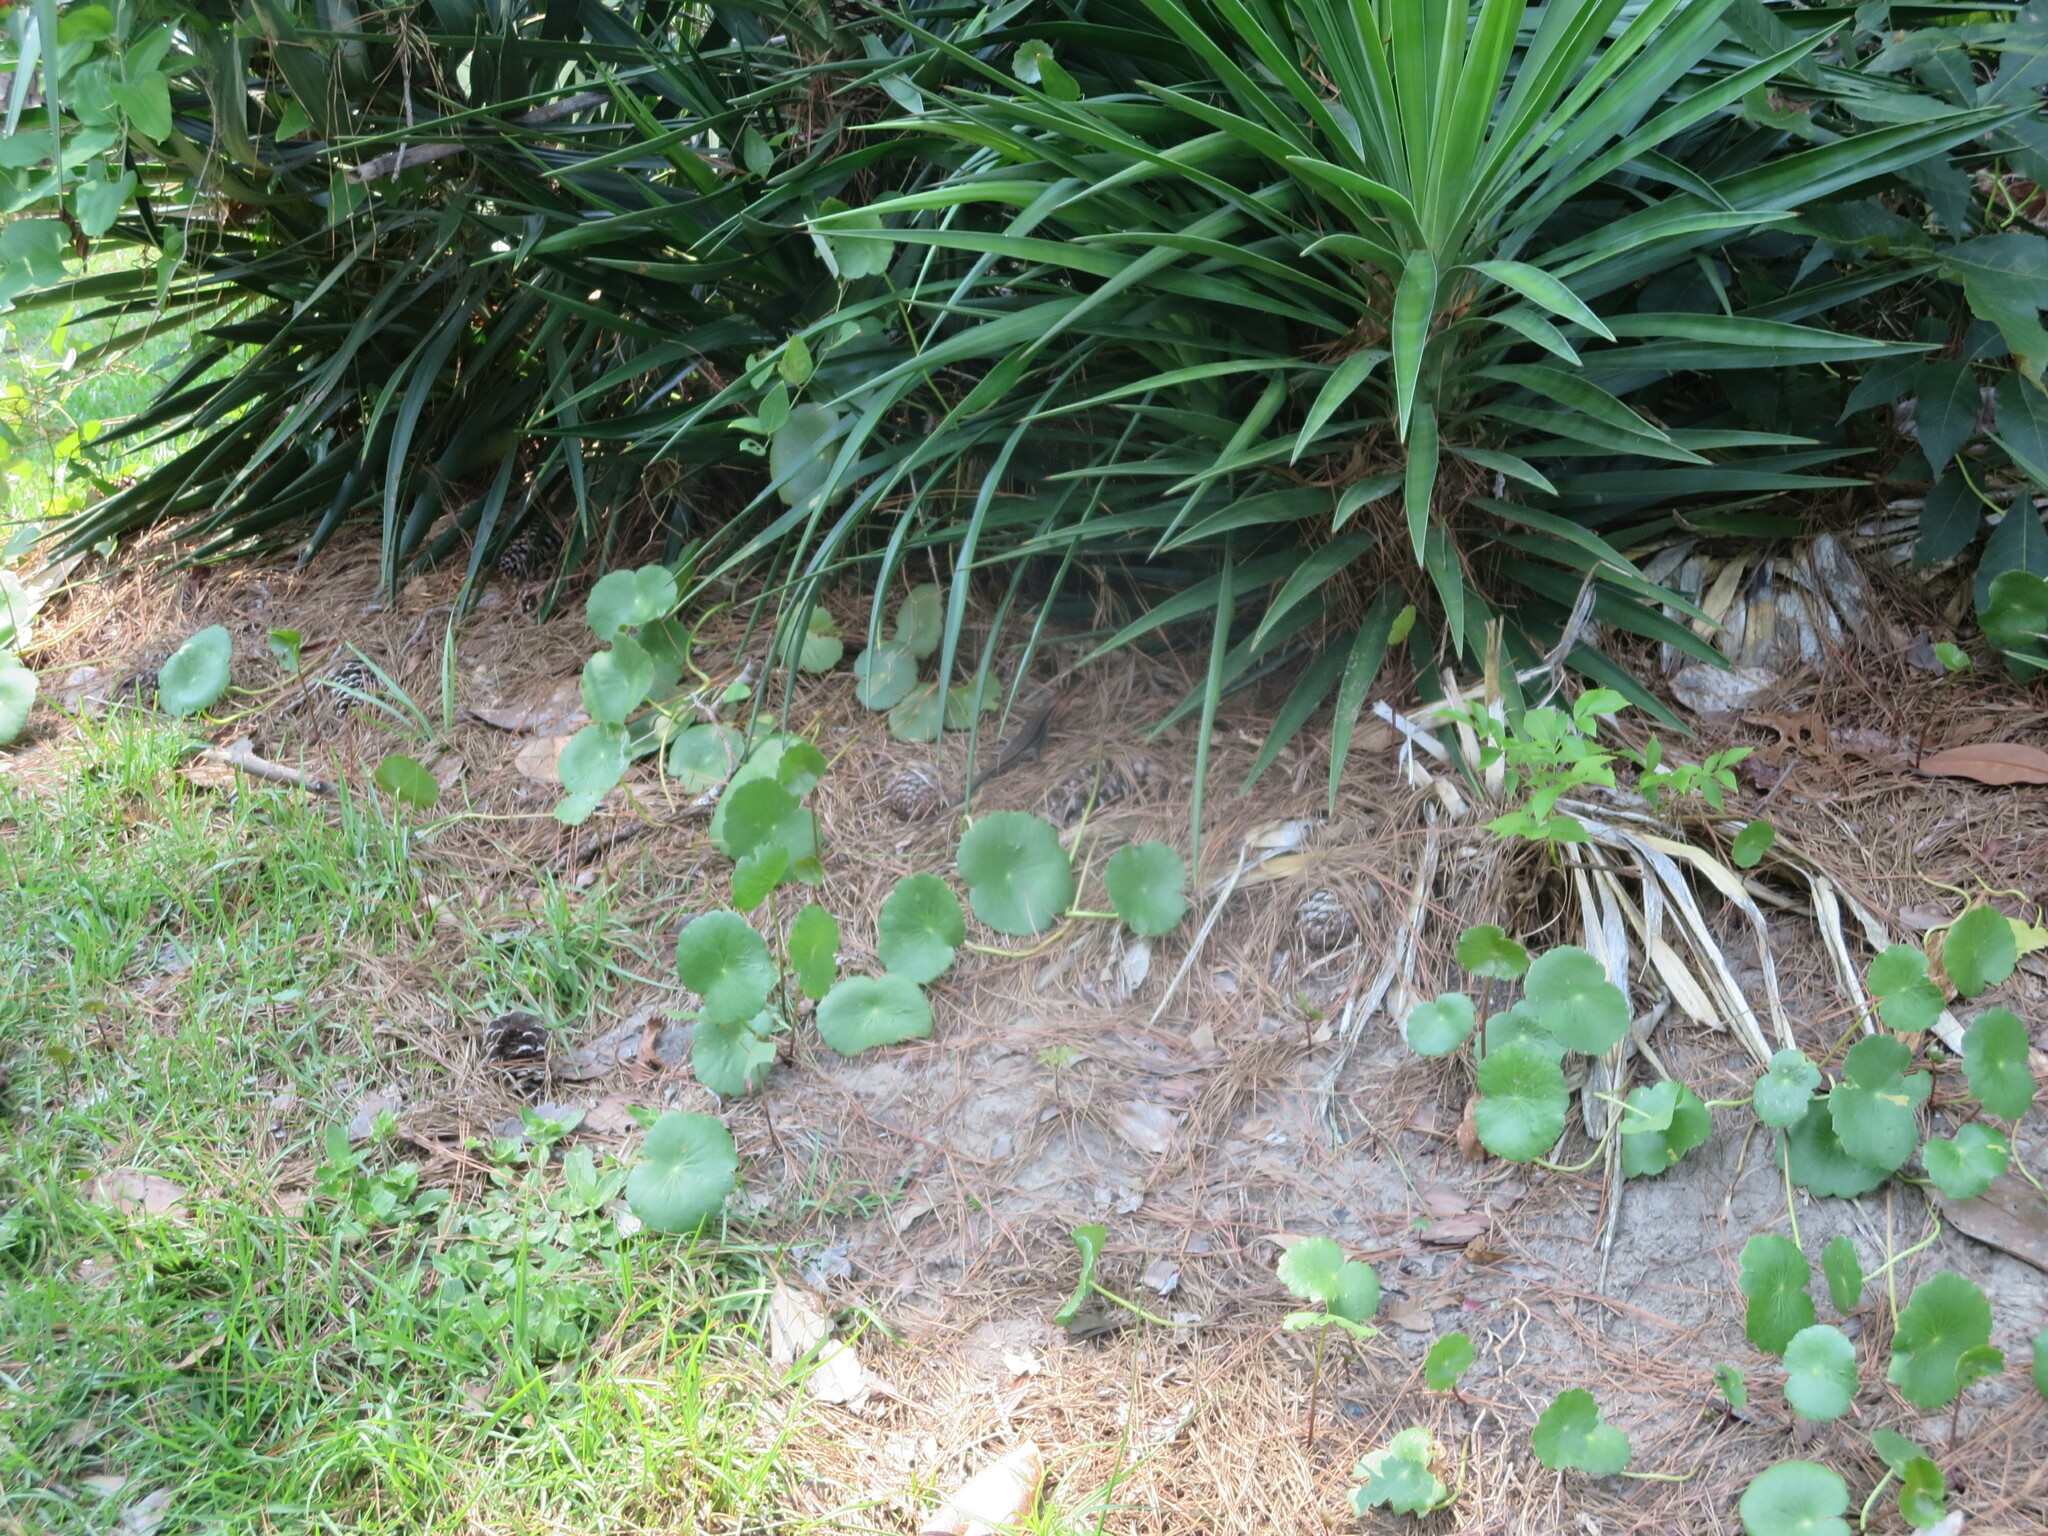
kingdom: Animalia
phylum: Chordata
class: Squamata
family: Scincidae
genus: Plestiodon
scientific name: Plestiodon laticeps
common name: Broadhead skink
